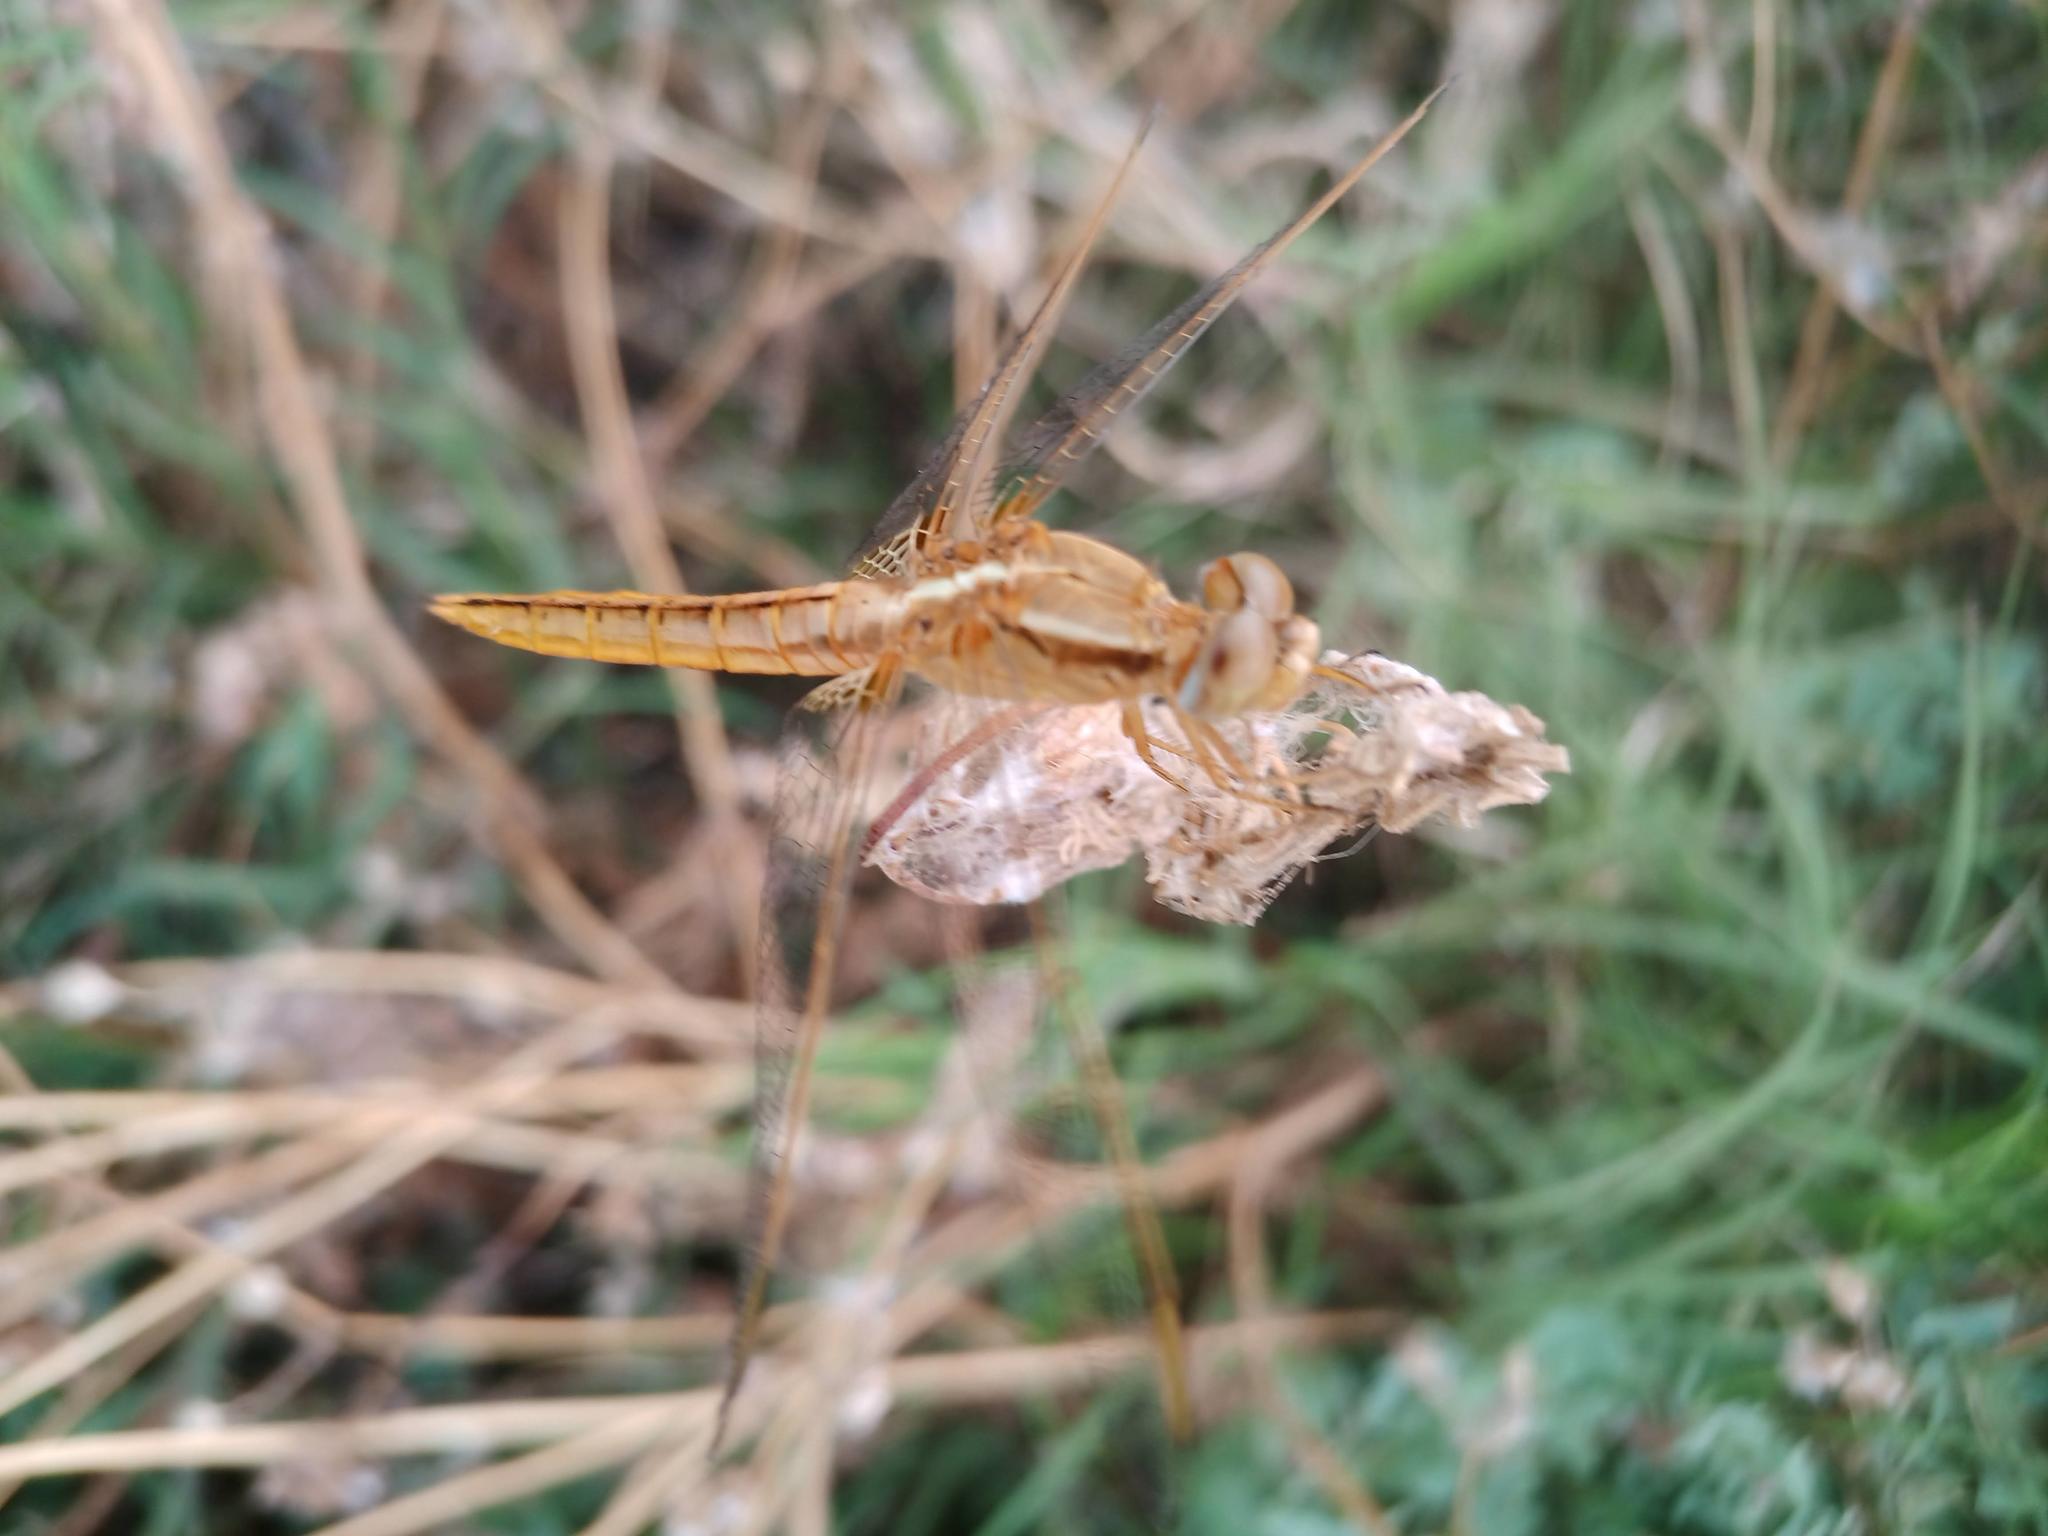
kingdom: Animalia
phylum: Arthropoda
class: Insecta
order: Odonata
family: Libellulidae
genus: Crocothemis
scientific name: Crocothemis erythraea
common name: Scarlet dragonfly
